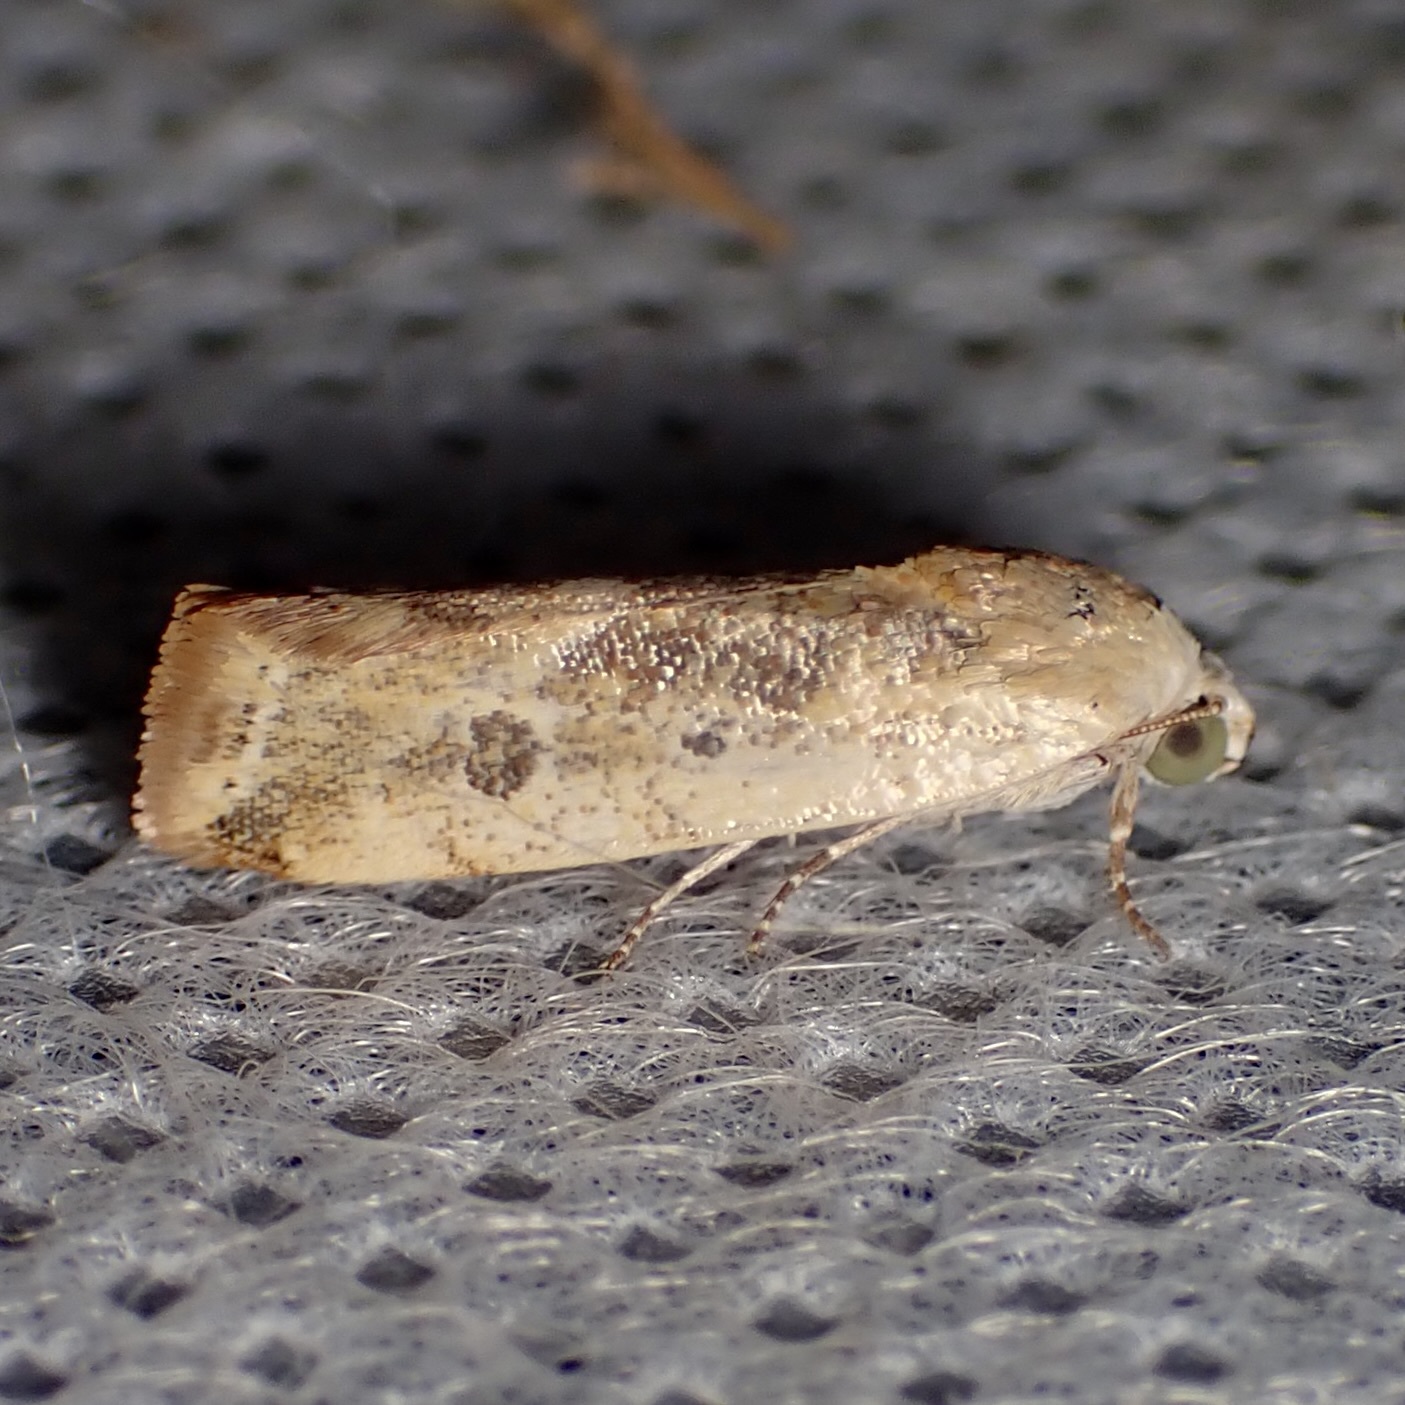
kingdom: Animalia
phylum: Arthropoda
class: Insecta
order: Lepidoptera
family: Noctuidae
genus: Acontia
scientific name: Acontia fasciatella
